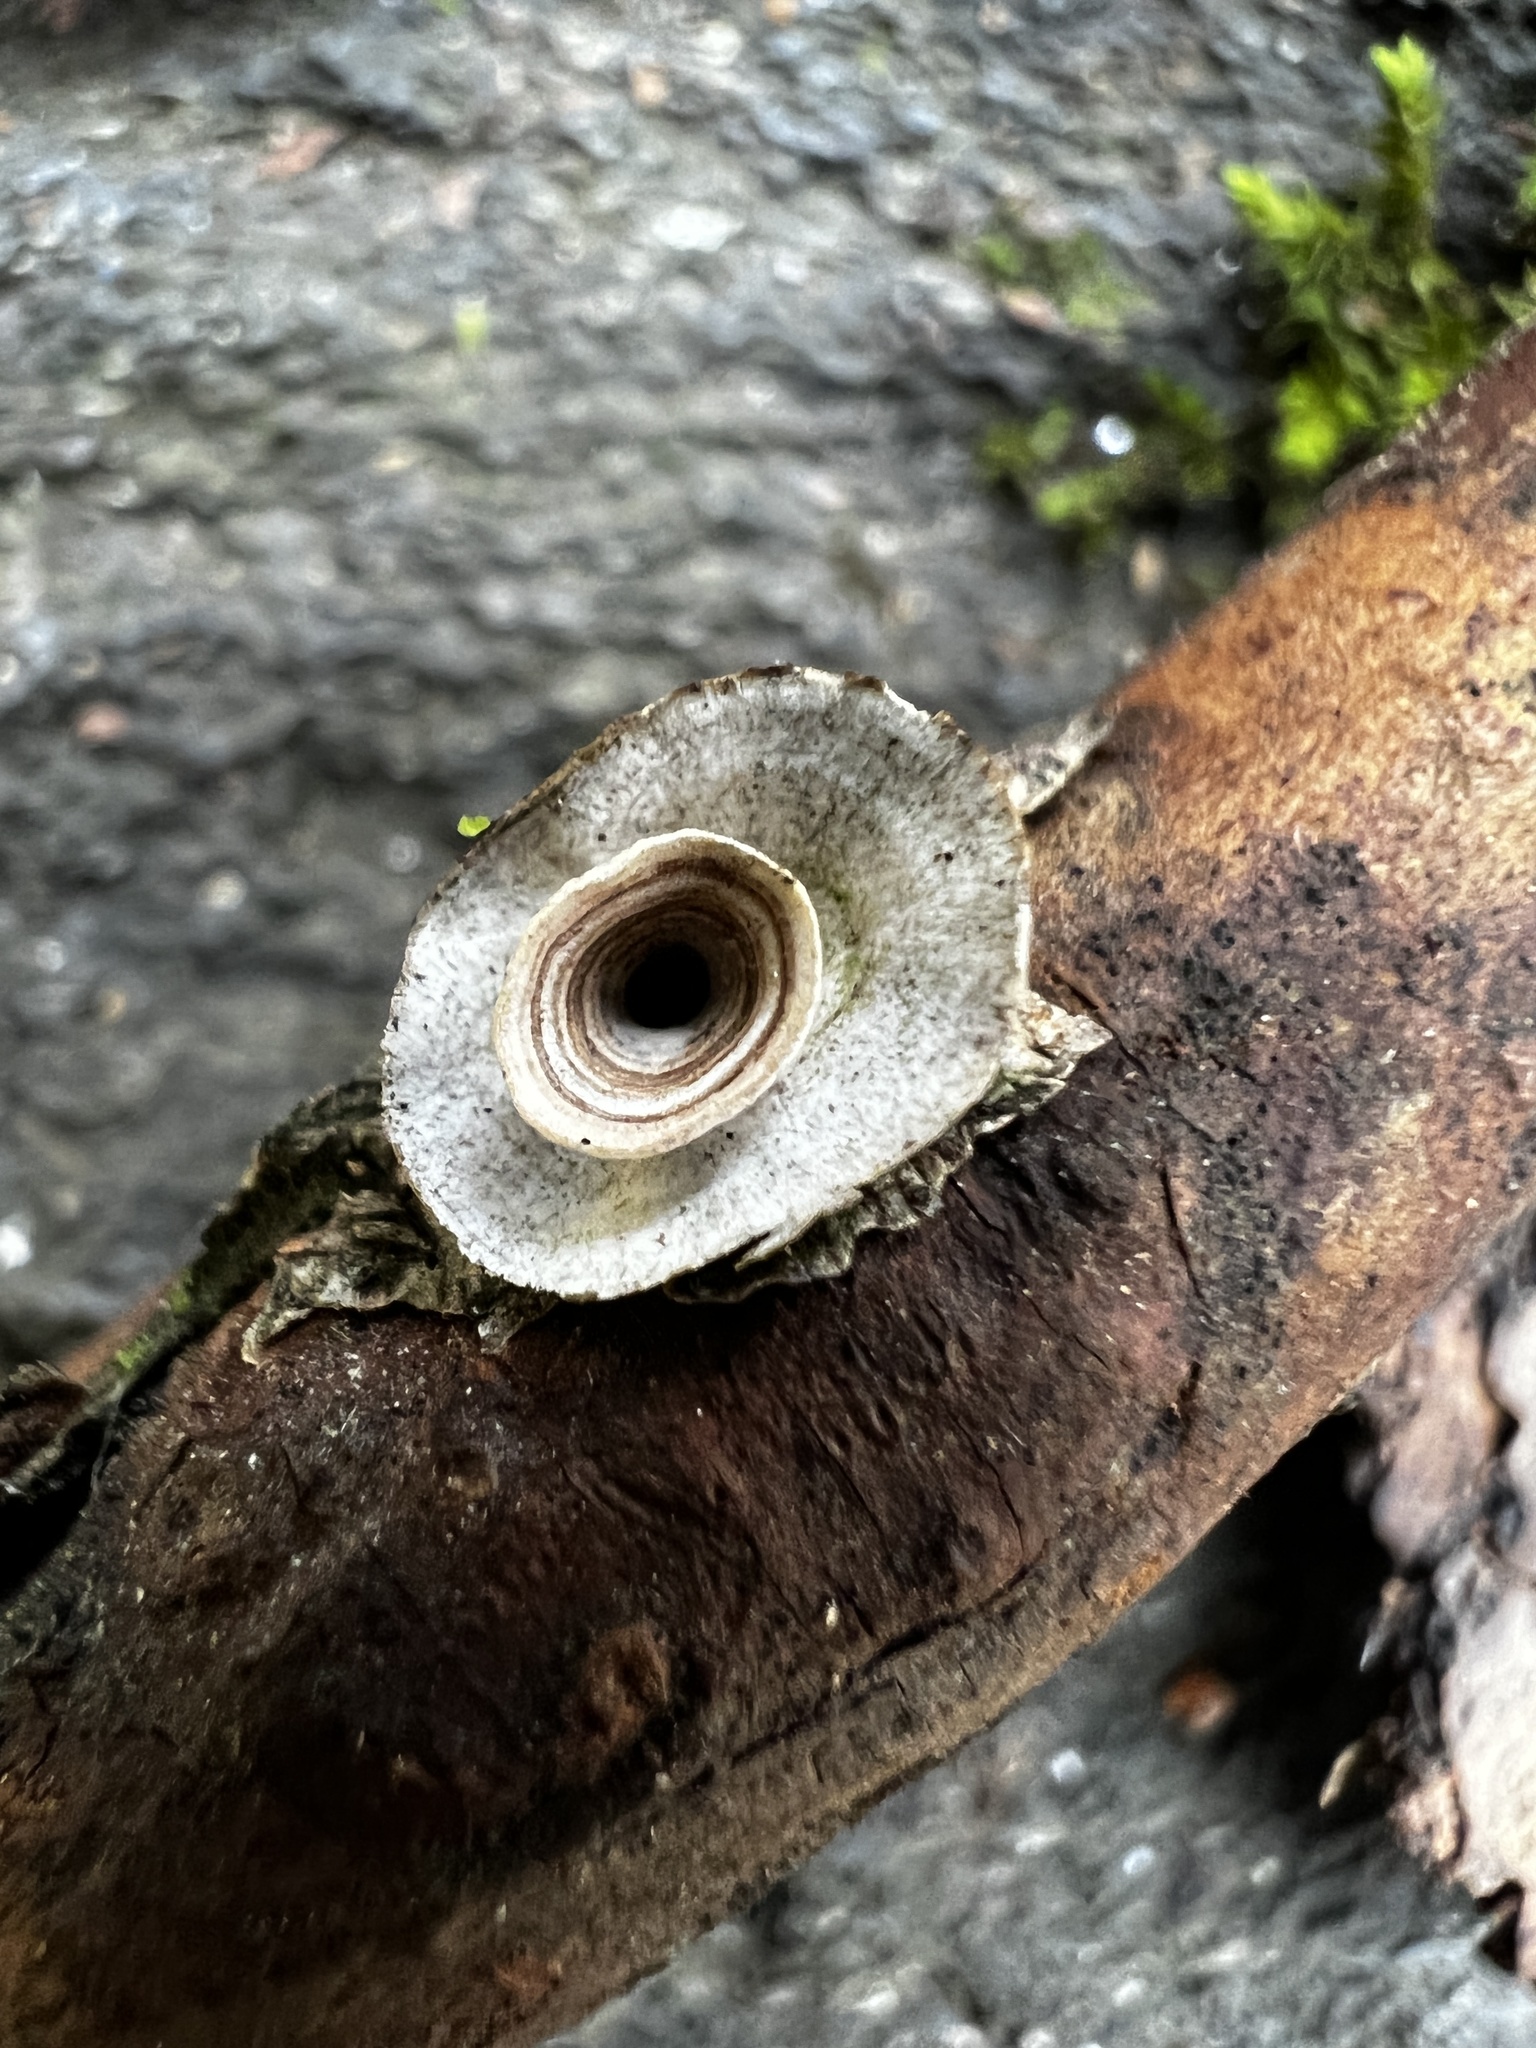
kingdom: Fungi
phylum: Basidiomycota
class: Agaricomycetes
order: Polyporales
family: Polyporaceae
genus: Poronidulus
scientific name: Poronidulus conchifer
